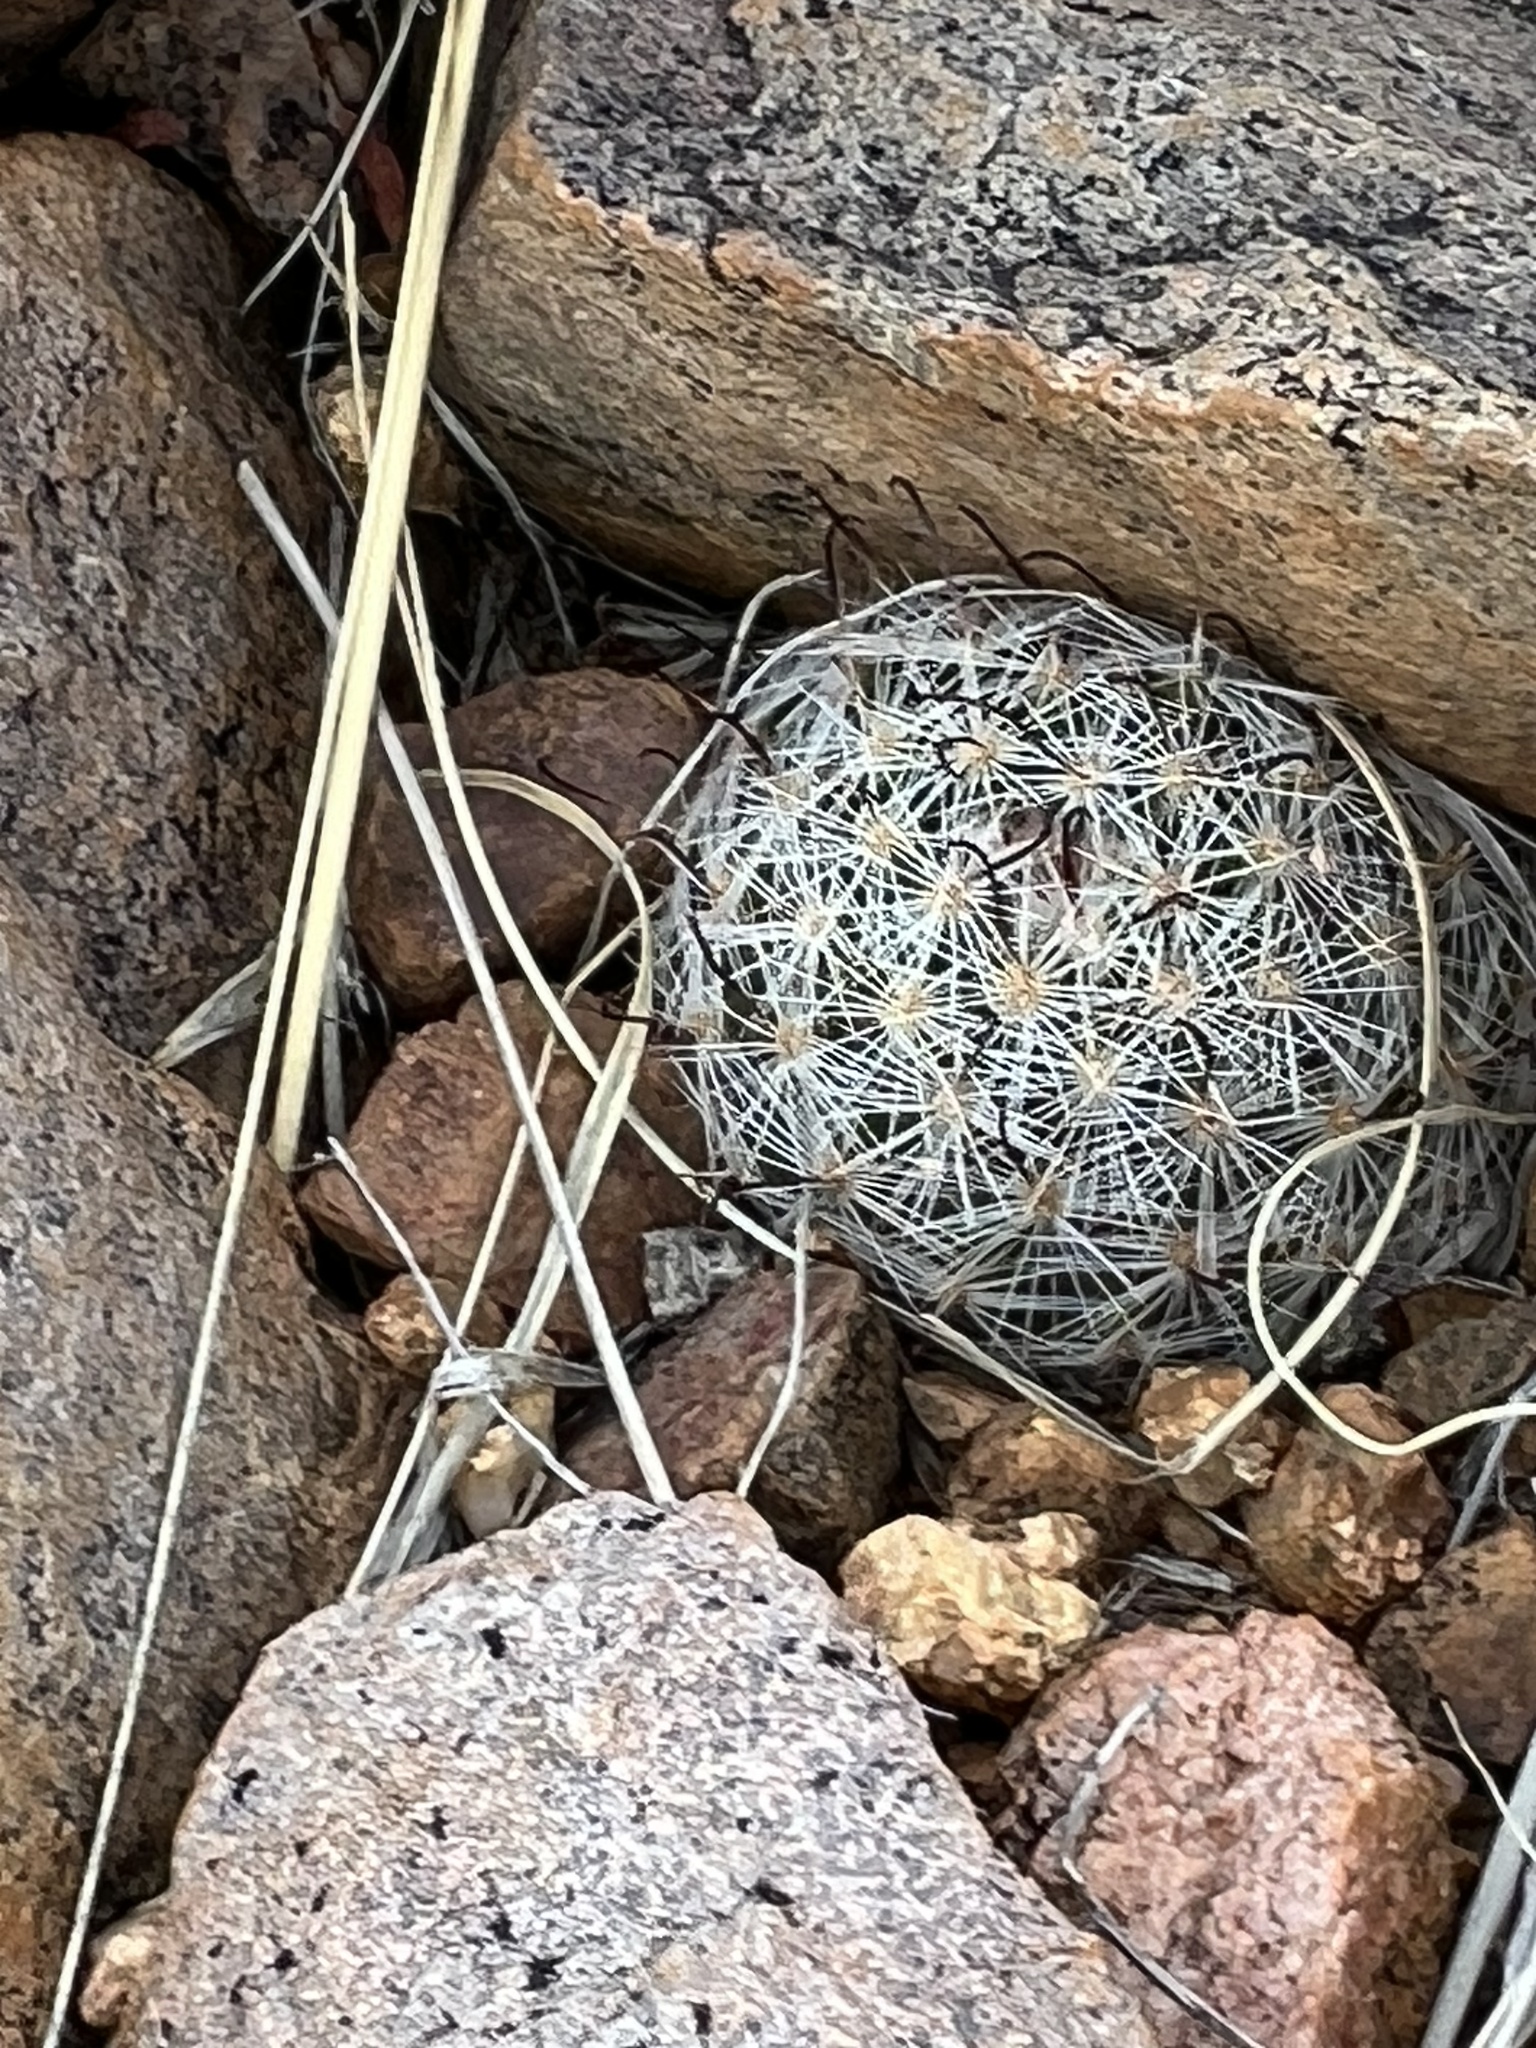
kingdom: Plantae
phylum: Tracheophyta
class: Magnoliopsida
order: Caryophyllales
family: Cactaceae
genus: Cochemiea
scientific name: Cochemiea grahamii
